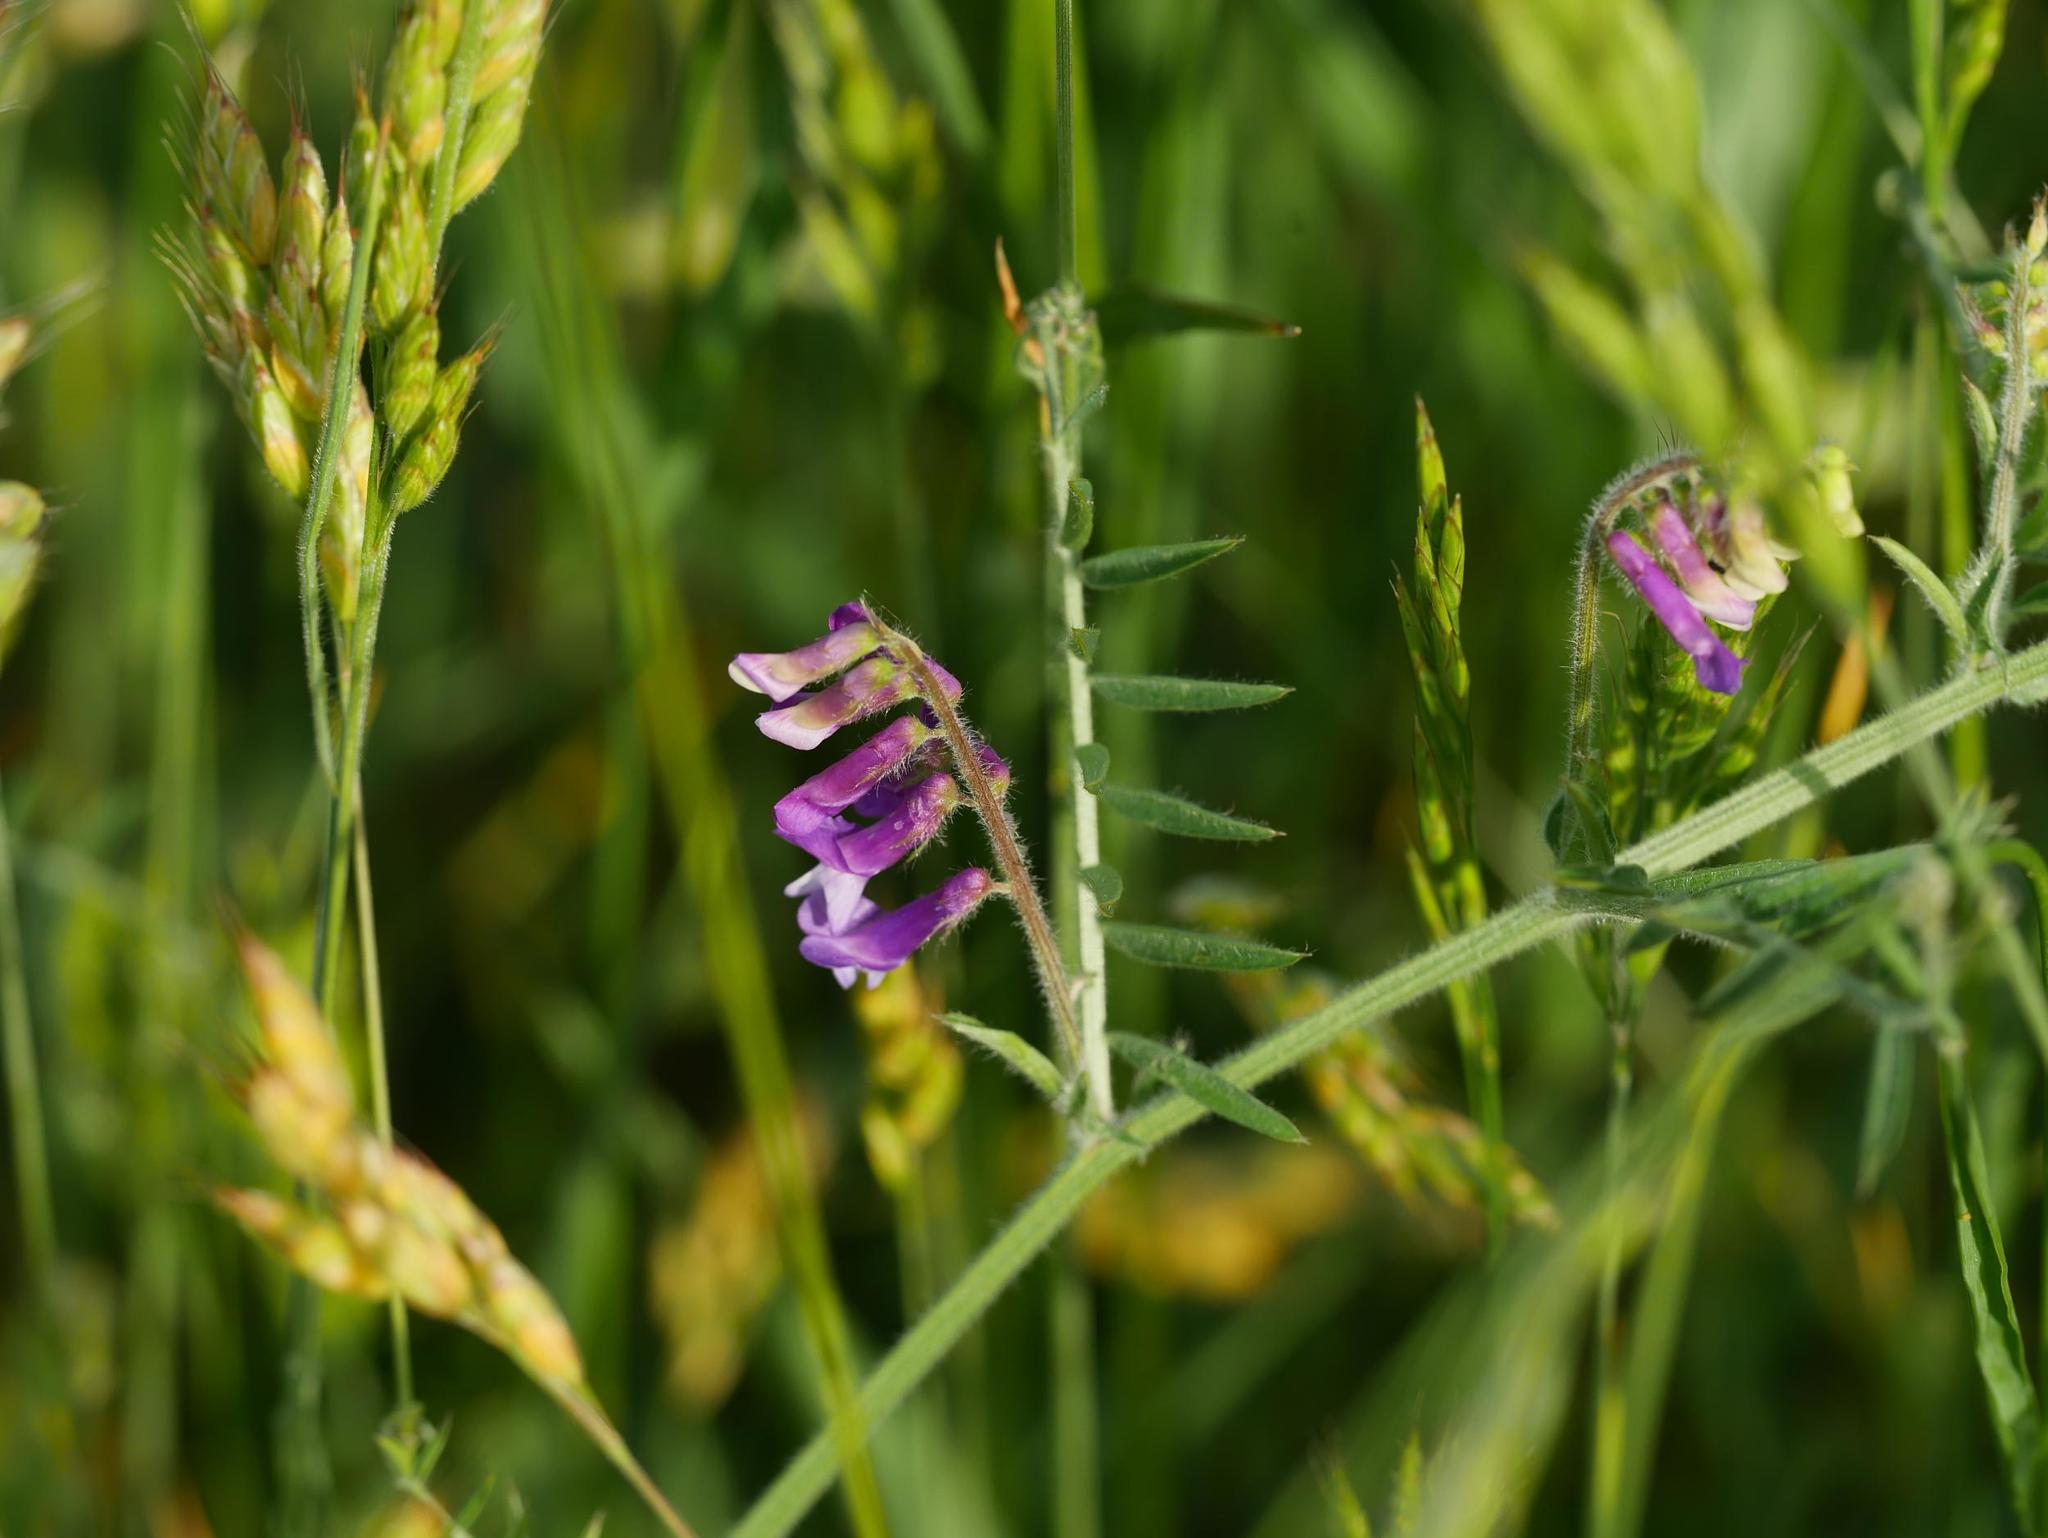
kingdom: Plantae
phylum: Tracheophyta
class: Magnoliopsida
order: Fabales
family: Fabaceae
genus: Vicia
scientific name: Vicia villosa
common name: Fodder vetch
